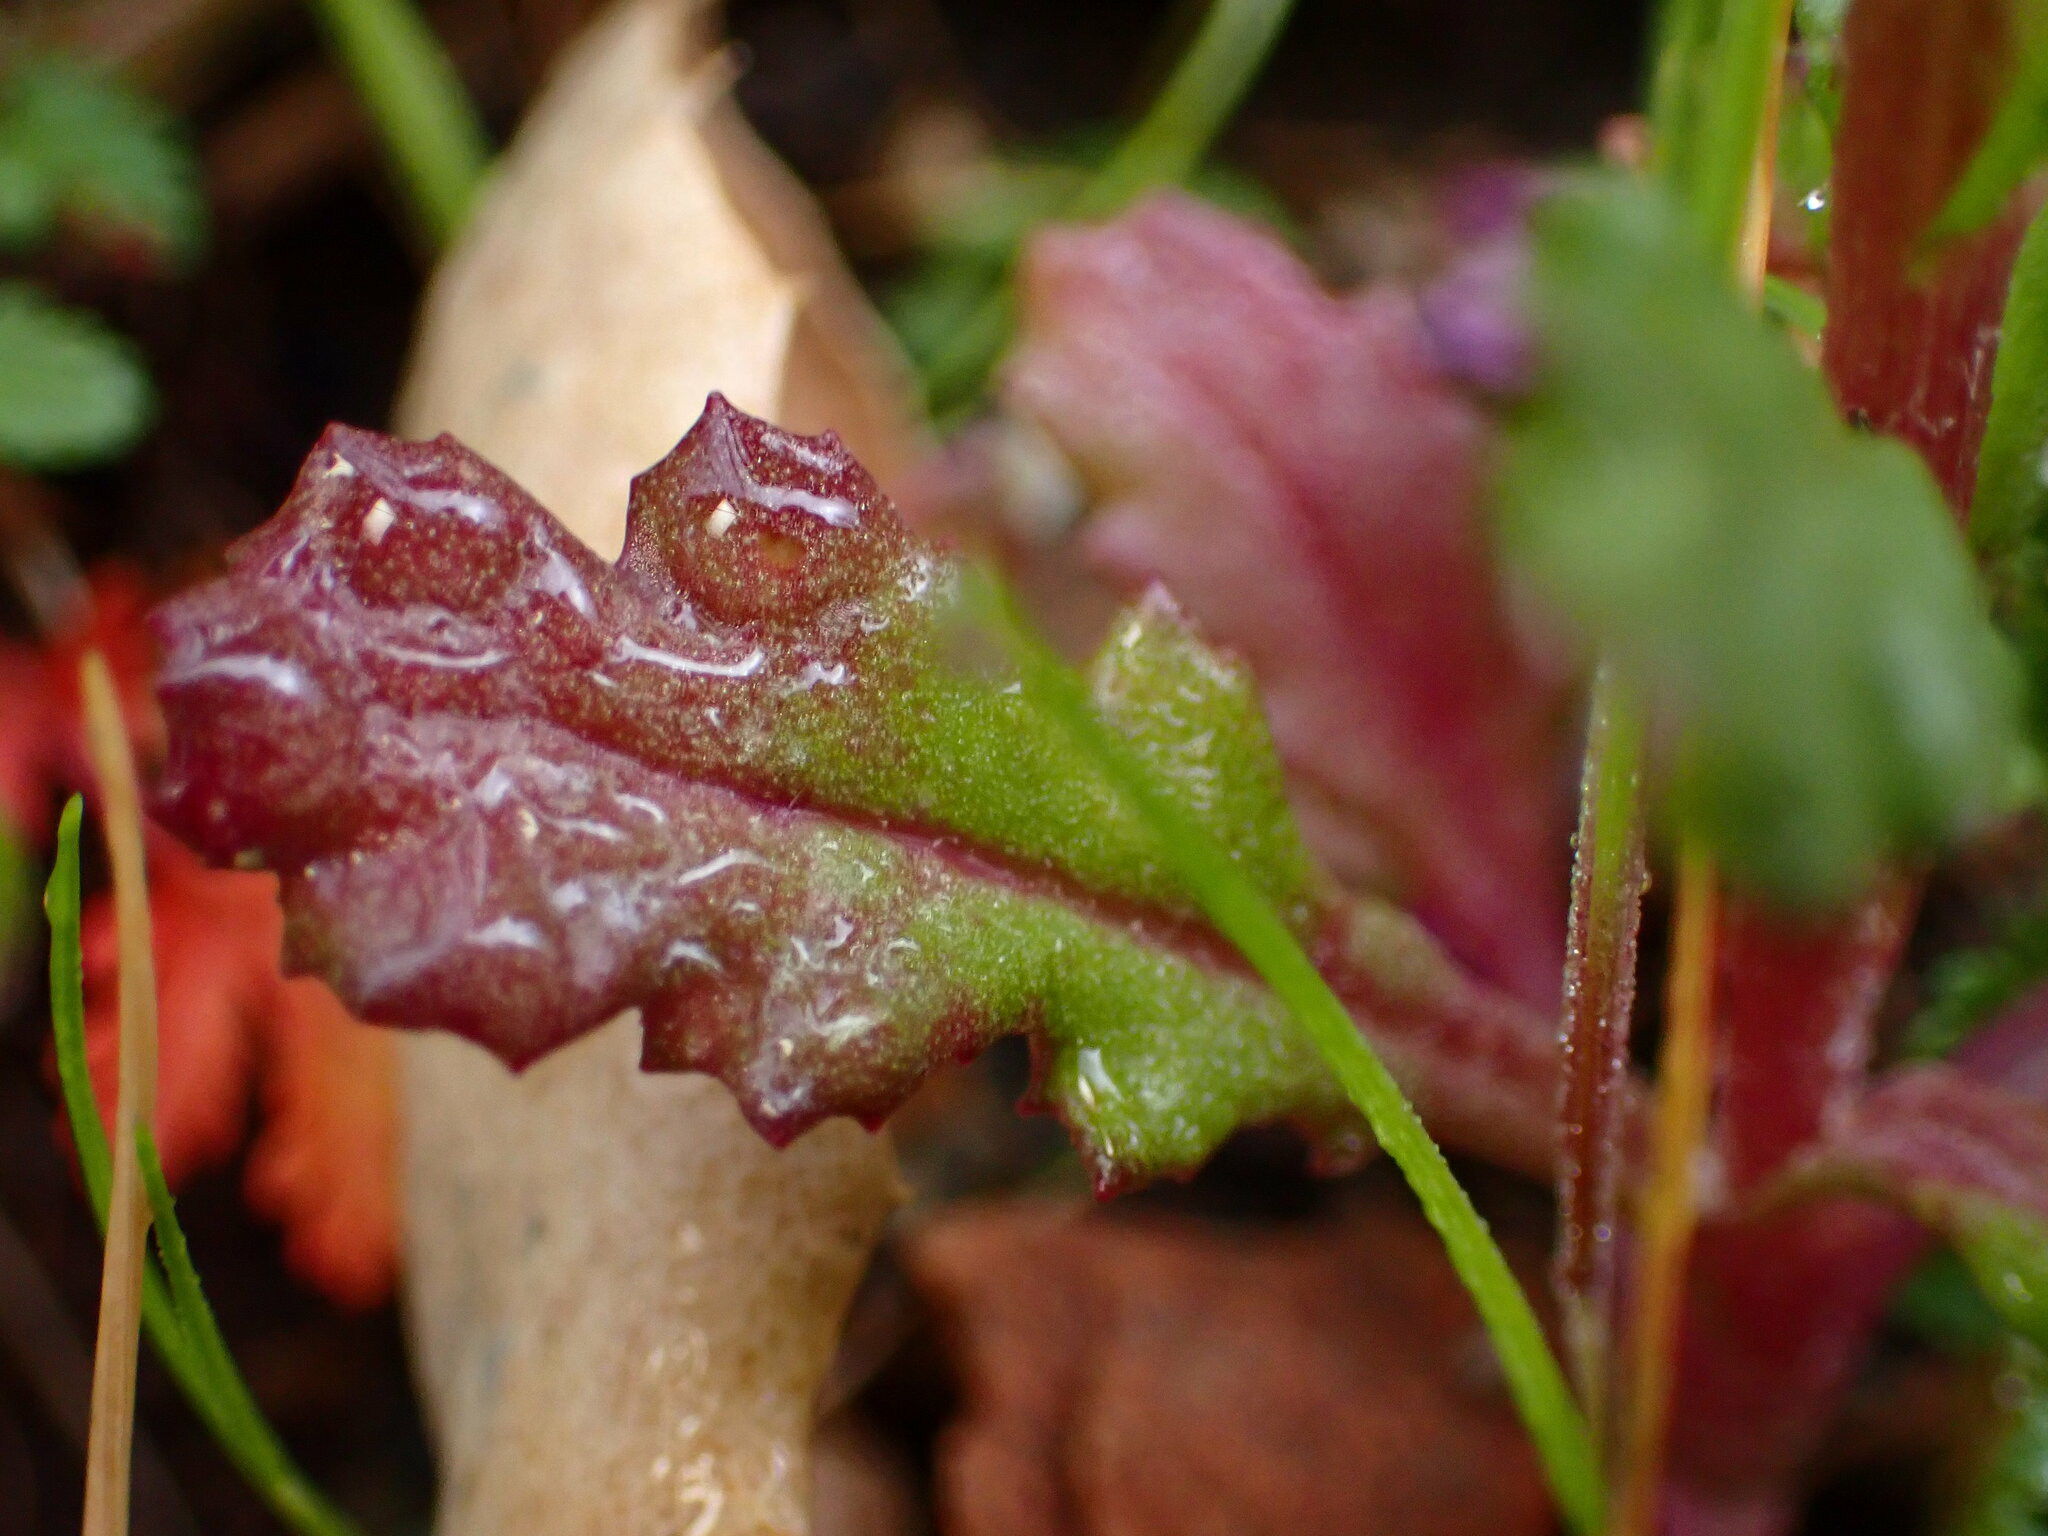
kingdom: Plantae
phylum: Tracheophyta
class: Magnoliopsida
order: Asterales
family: Asteraceae
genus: Senecio
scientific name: Senecio vulgaris
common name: Old-man-in-the-spring
